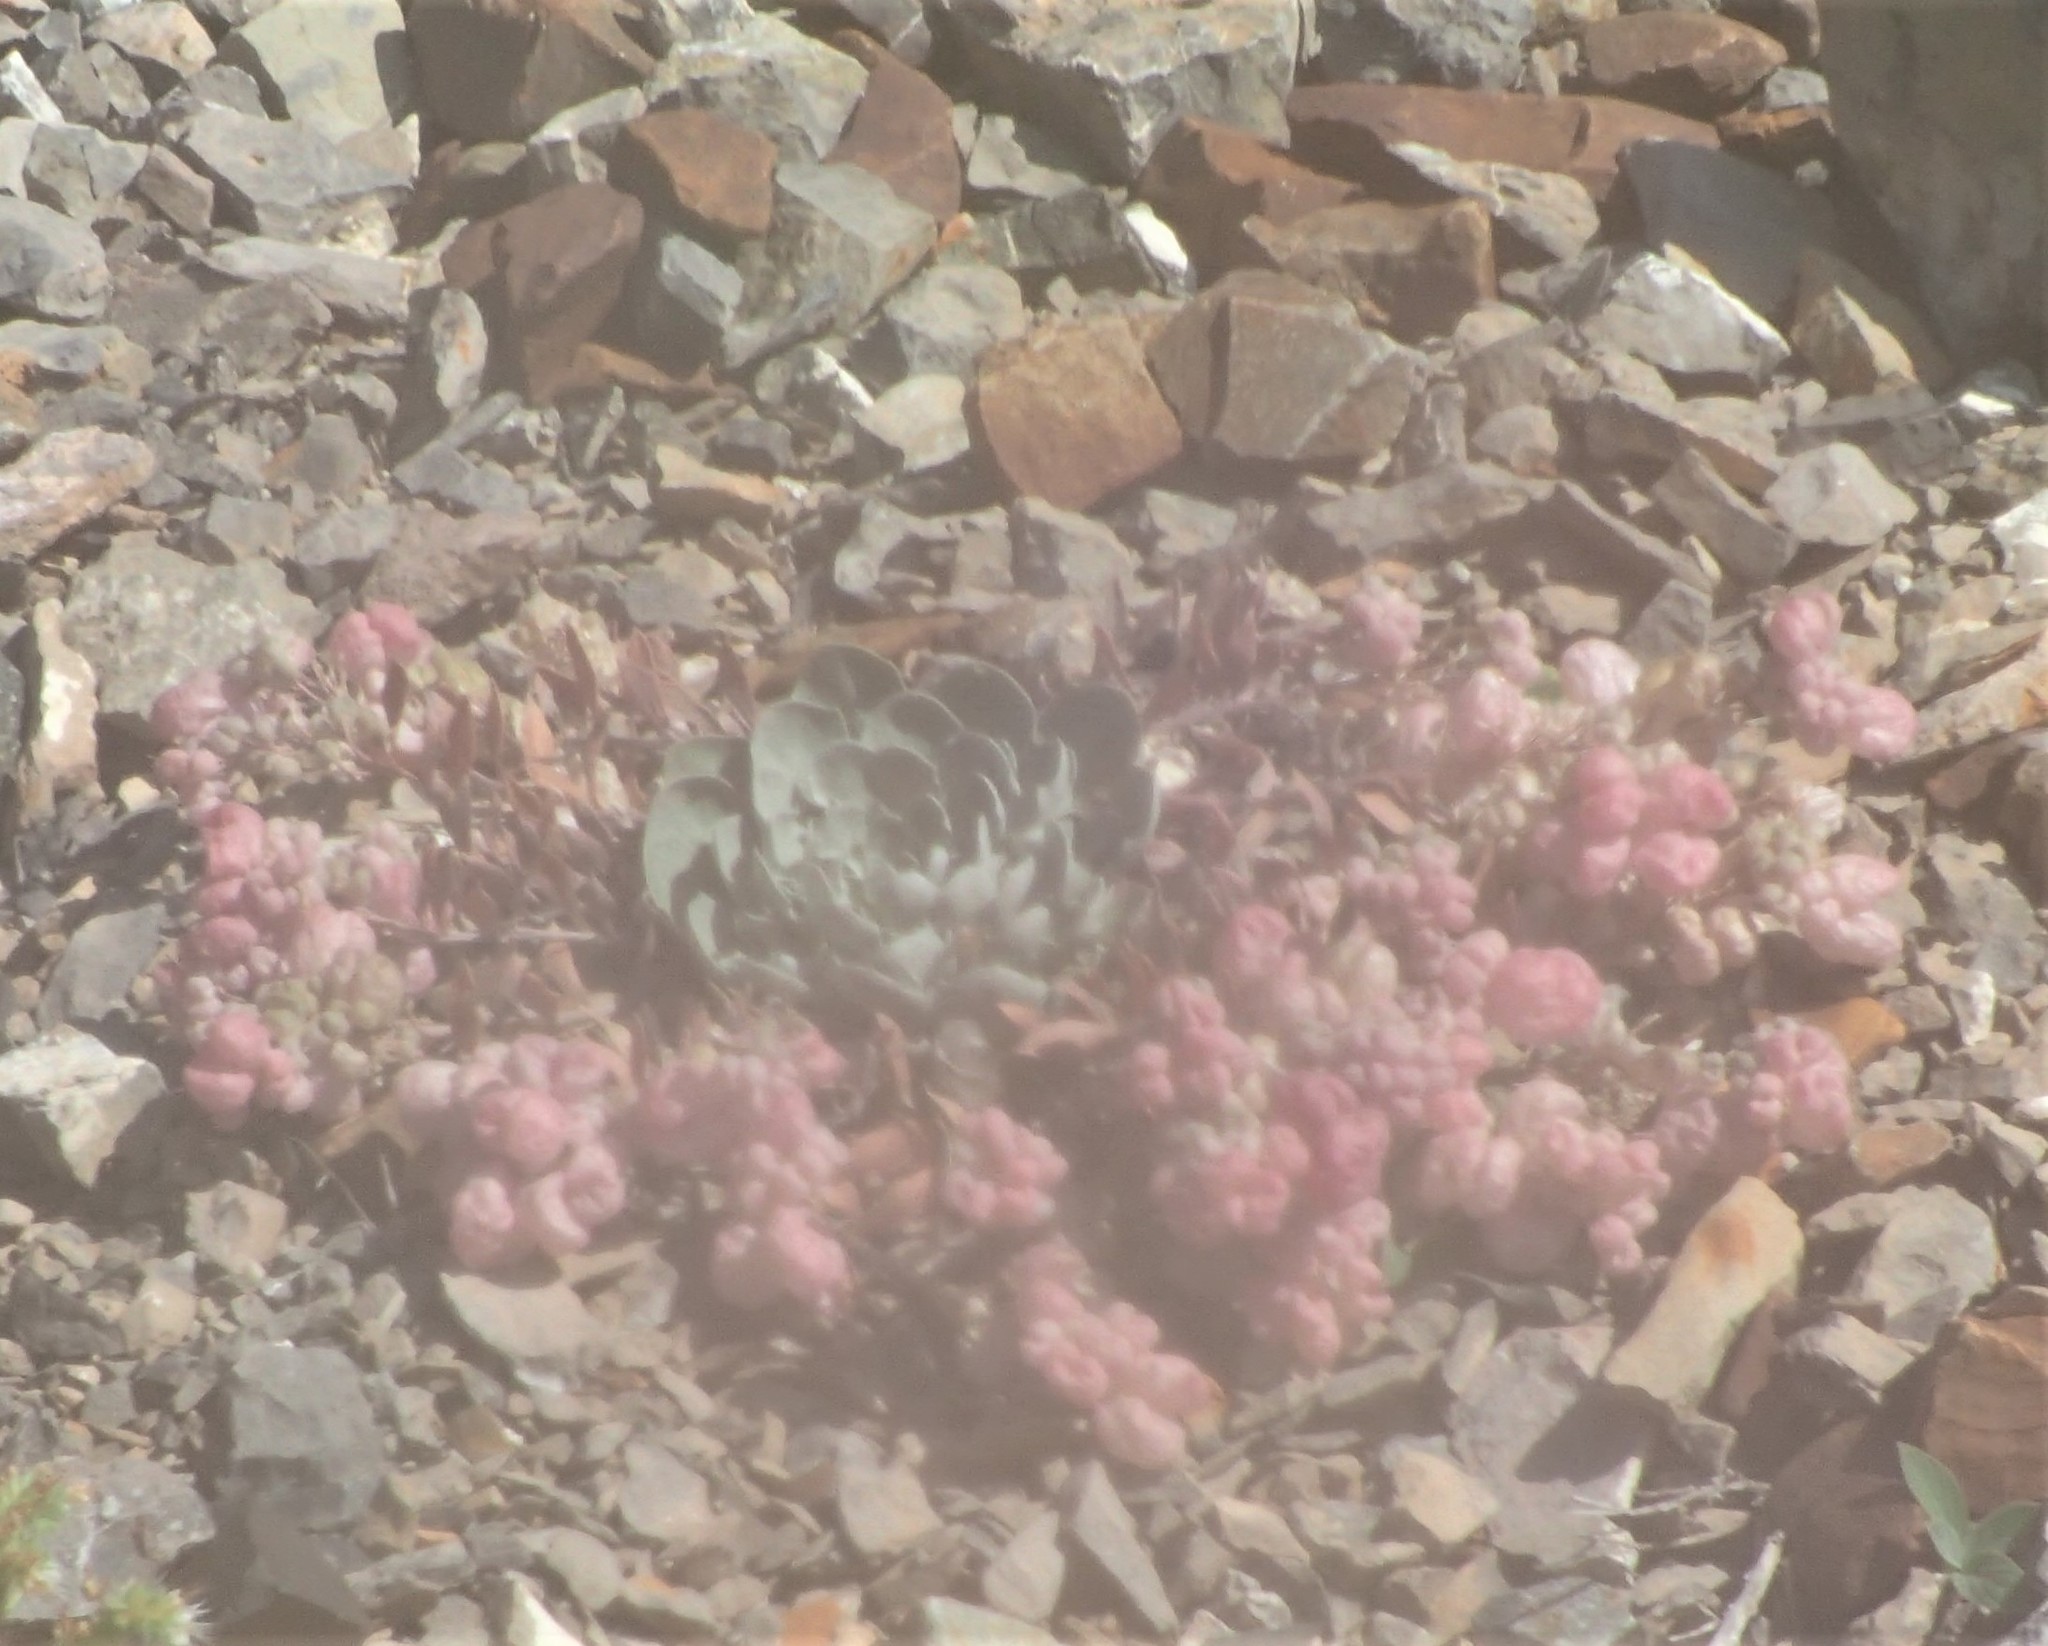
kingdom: Plantae
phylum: Tracheophyta
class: Magnoliopsida
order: Brassicales
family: Brassicaceae
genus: Physaria
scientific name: Physaria didymocarpa
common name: Common twinpod
